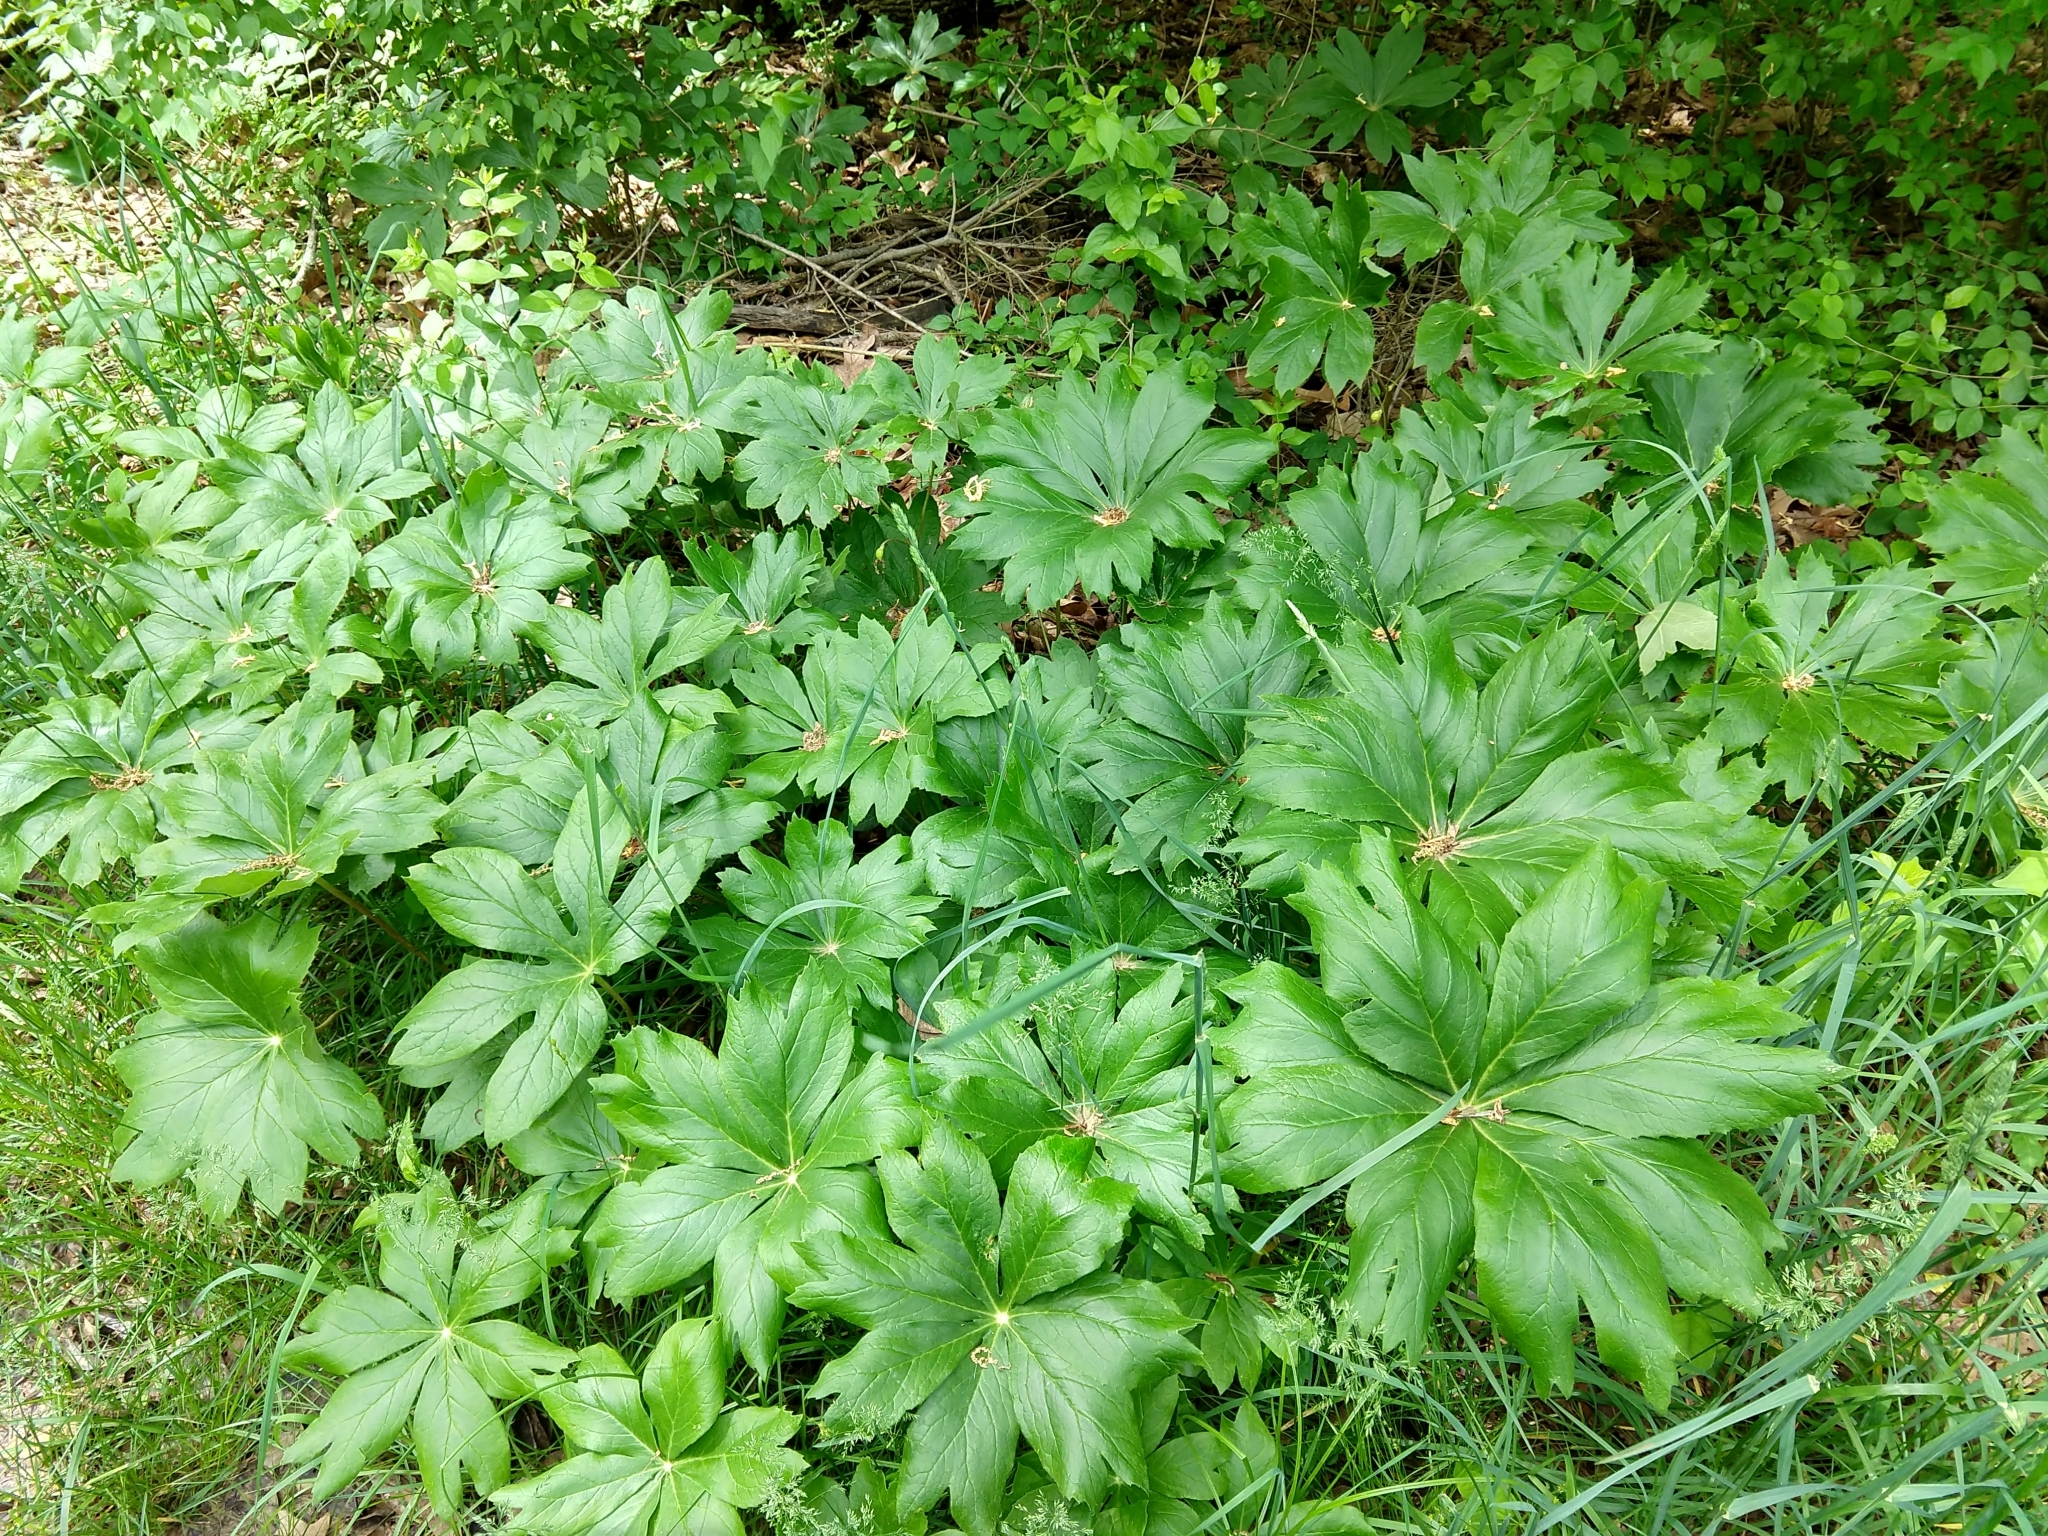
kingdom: Plantae
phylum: Tracheophyta
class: Magnoliopsida
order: Ranunculales
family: Berberidaceae
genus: Podophyllum
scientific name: Podophyllum peltatum
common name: Wild mandrake
